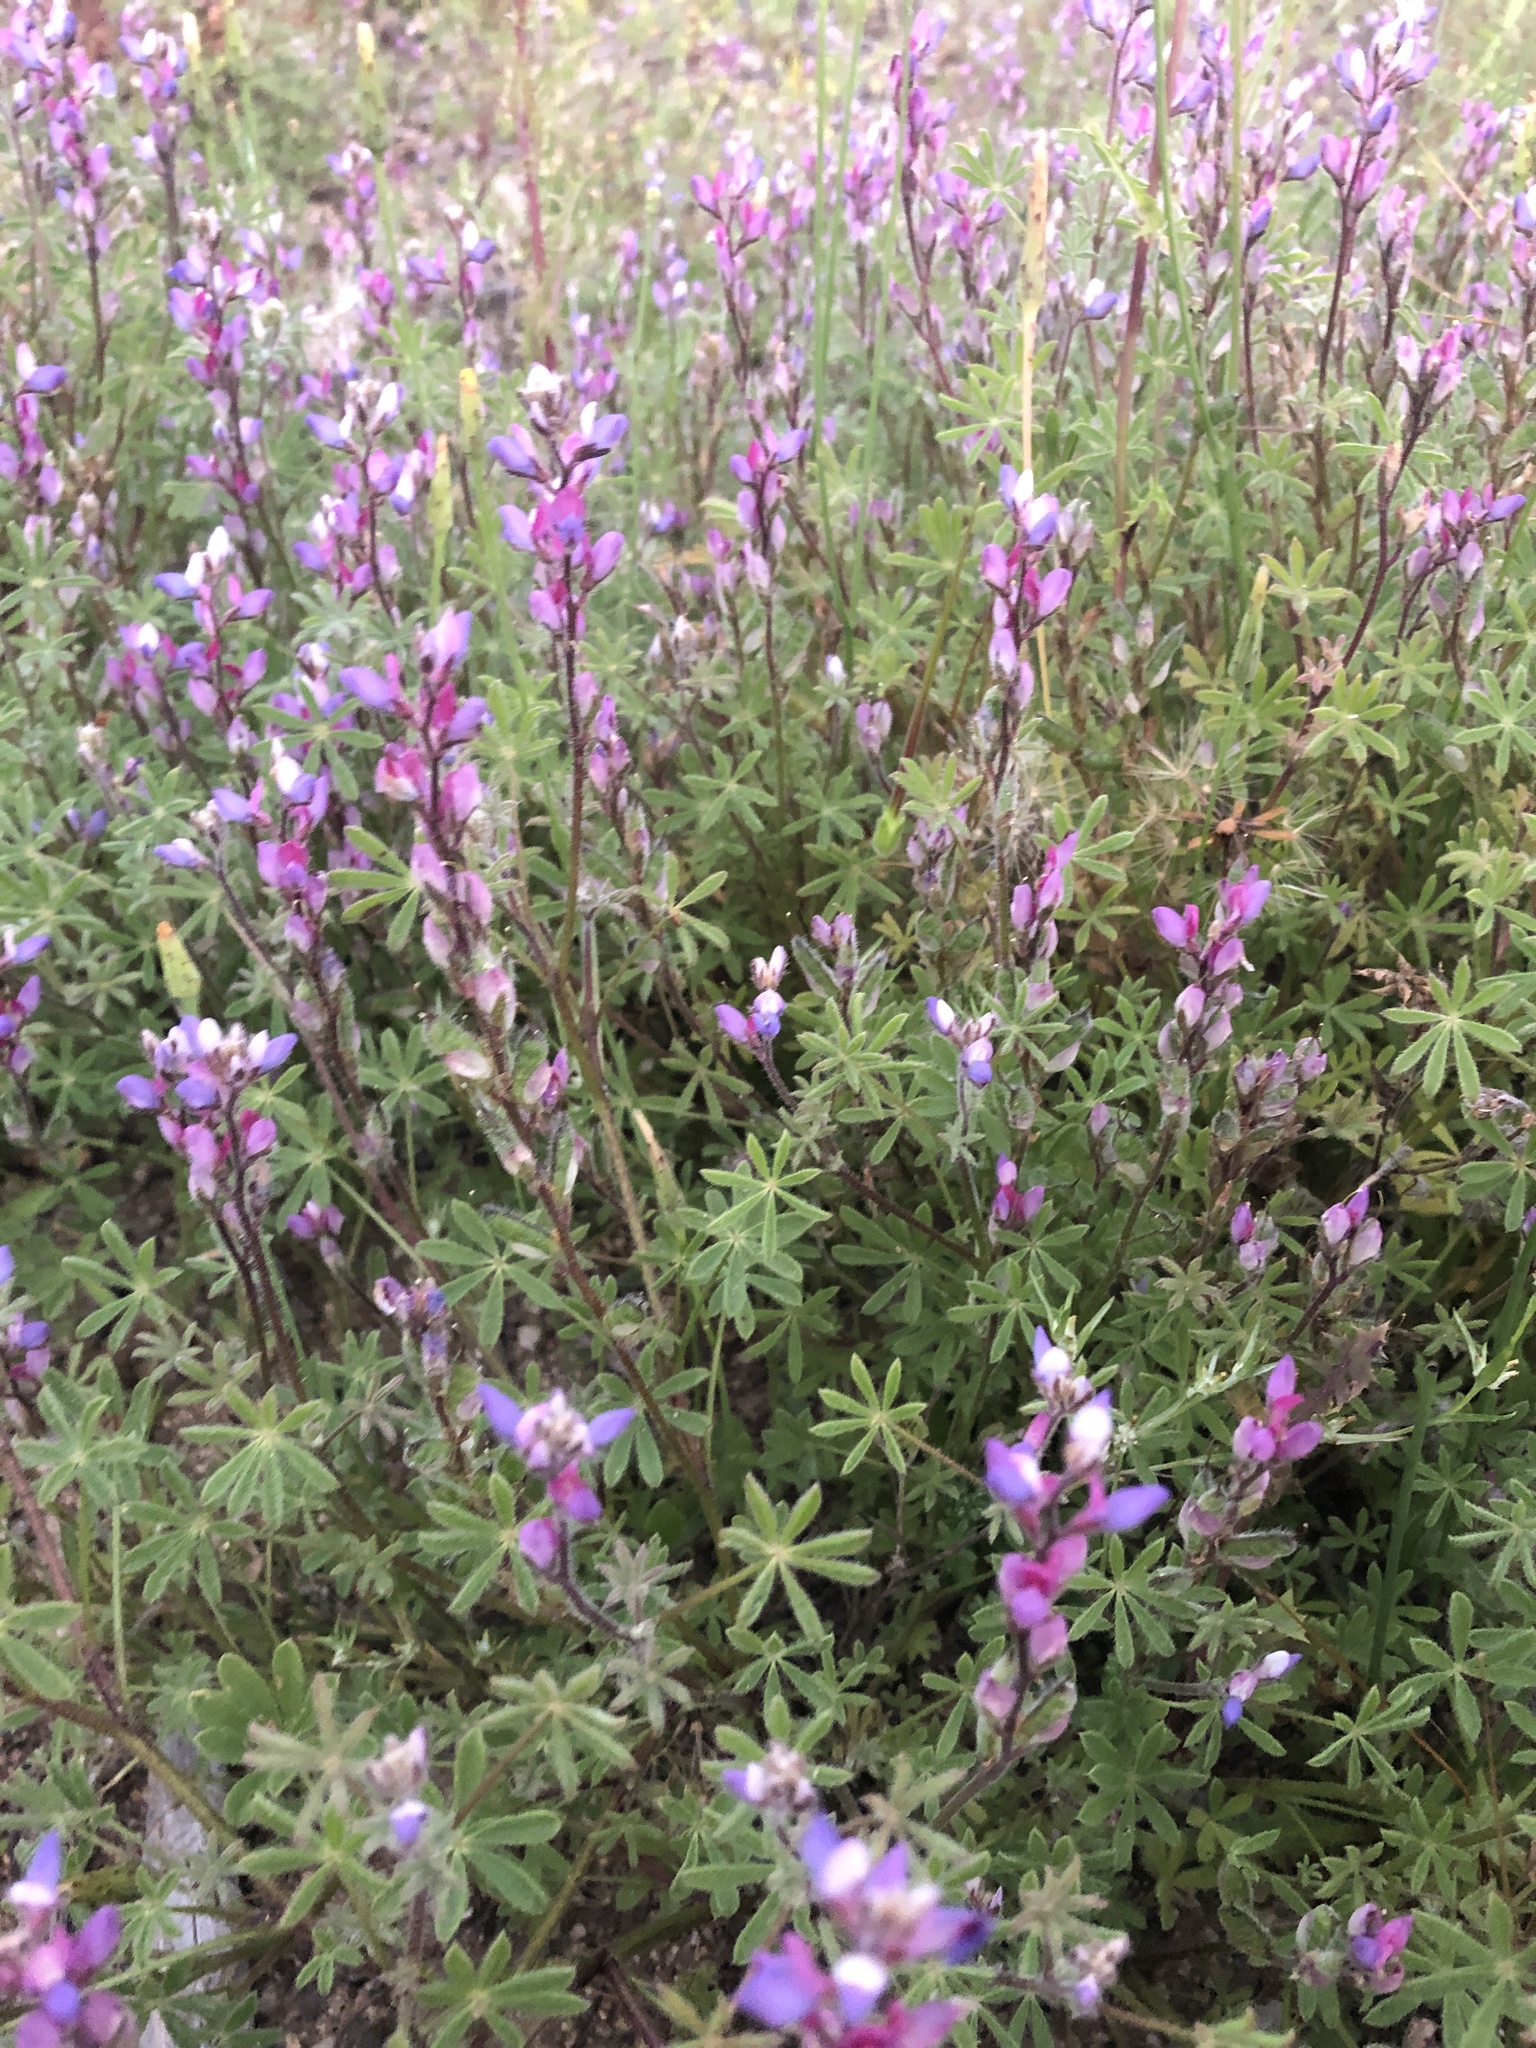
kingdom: Plantae
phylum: Tracheophyta
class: Magnoliopsida
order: Fabales
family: Fabaceae
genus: Lupinus
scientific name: Lupinus sparsiflorus
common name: Coulter's lupine
